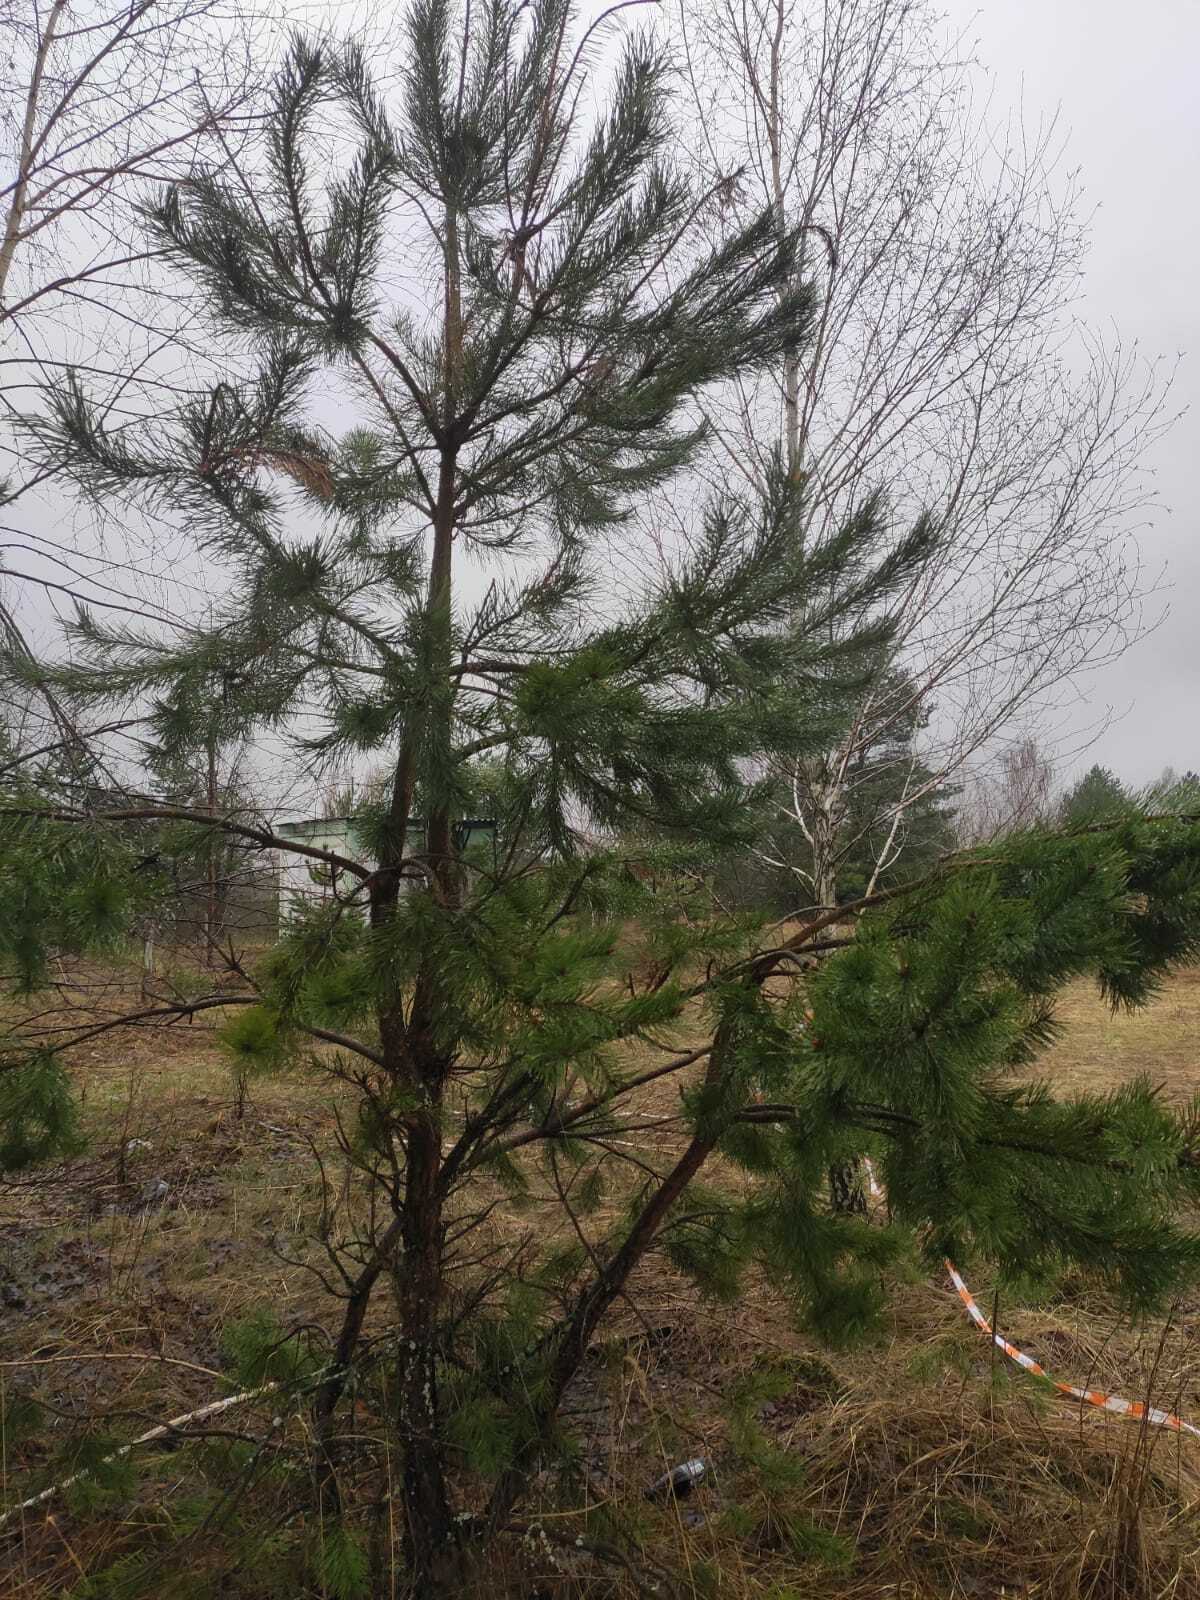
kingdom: Plantae
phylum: Tracheophyta
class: Pinopsida
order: Pinales
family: Pinaceae
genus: Pinus
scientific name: Pinus sylvestris
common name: Scots pine
